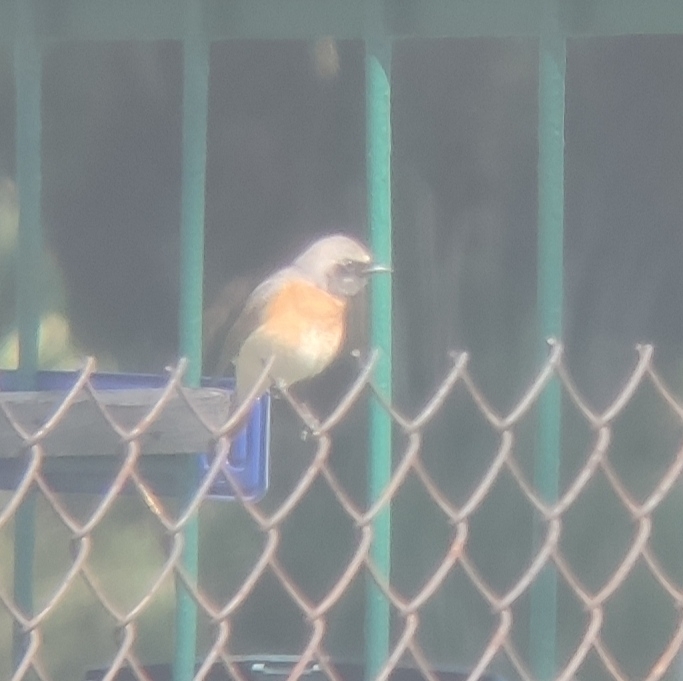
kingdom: Animalia
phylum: Chordata
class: Aves
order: Passeriformes
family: Muscicapidae
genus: Phoenicurus
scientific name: Phoenicurus phoenicurus
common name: Common redstart
